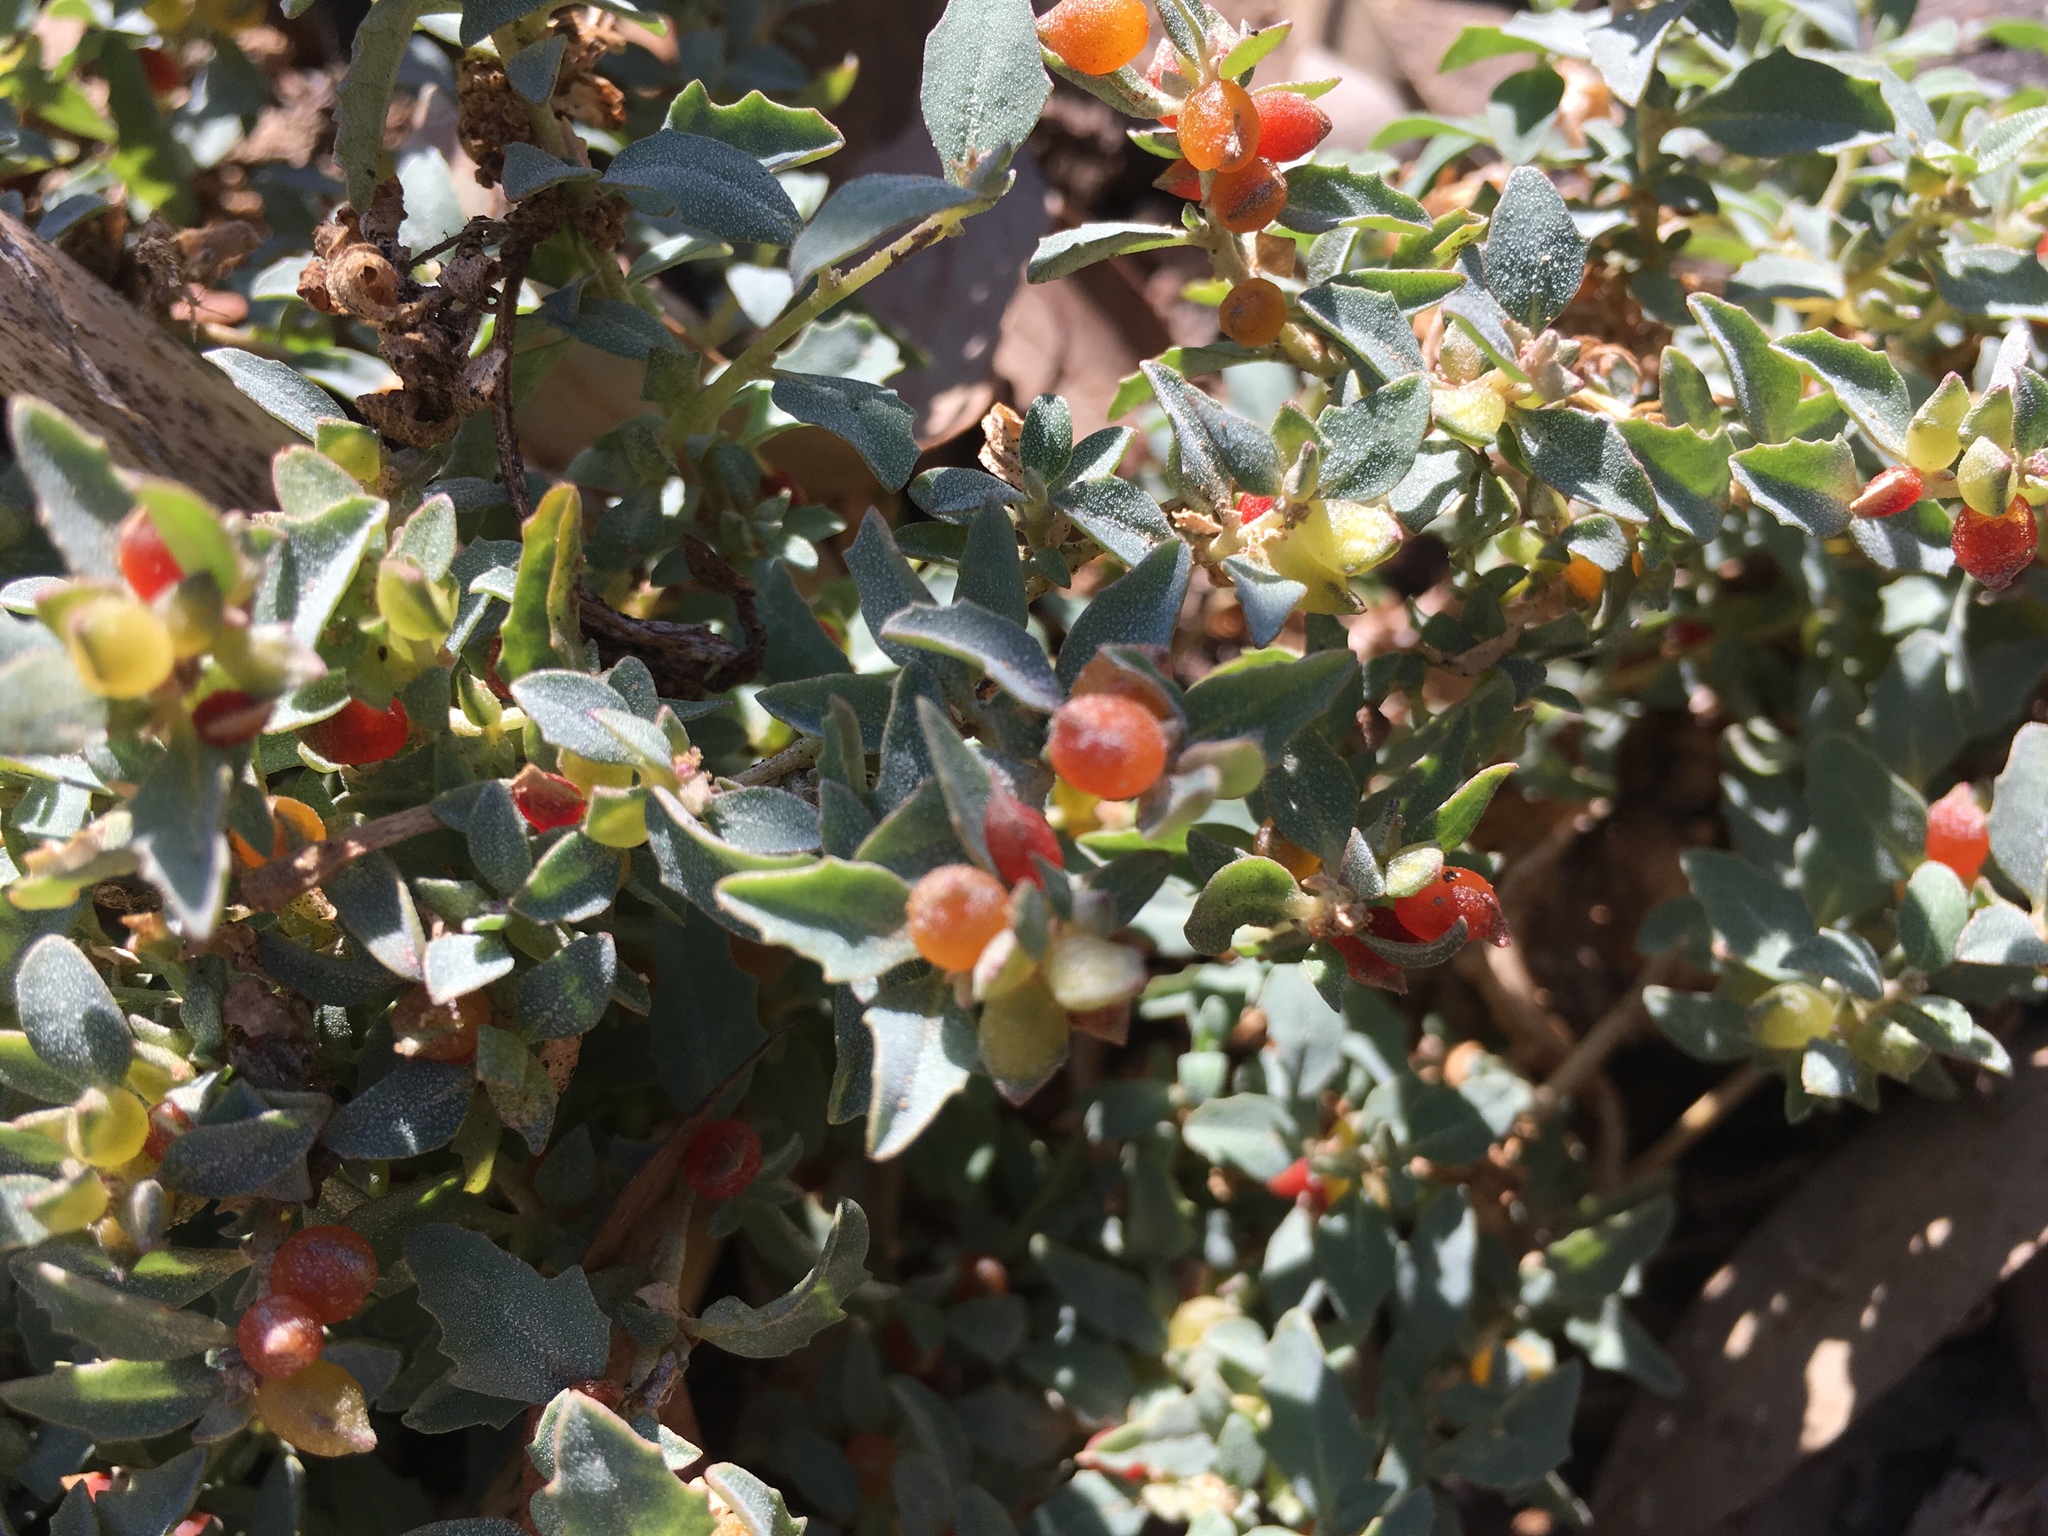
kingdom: Plantae
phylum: Tracheophyta
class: Magnoliopsida
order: Caryophyllales
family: Amaranthaceae
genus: Atriplex
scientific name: Atriplex semibaccata
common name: Australian saltbush
